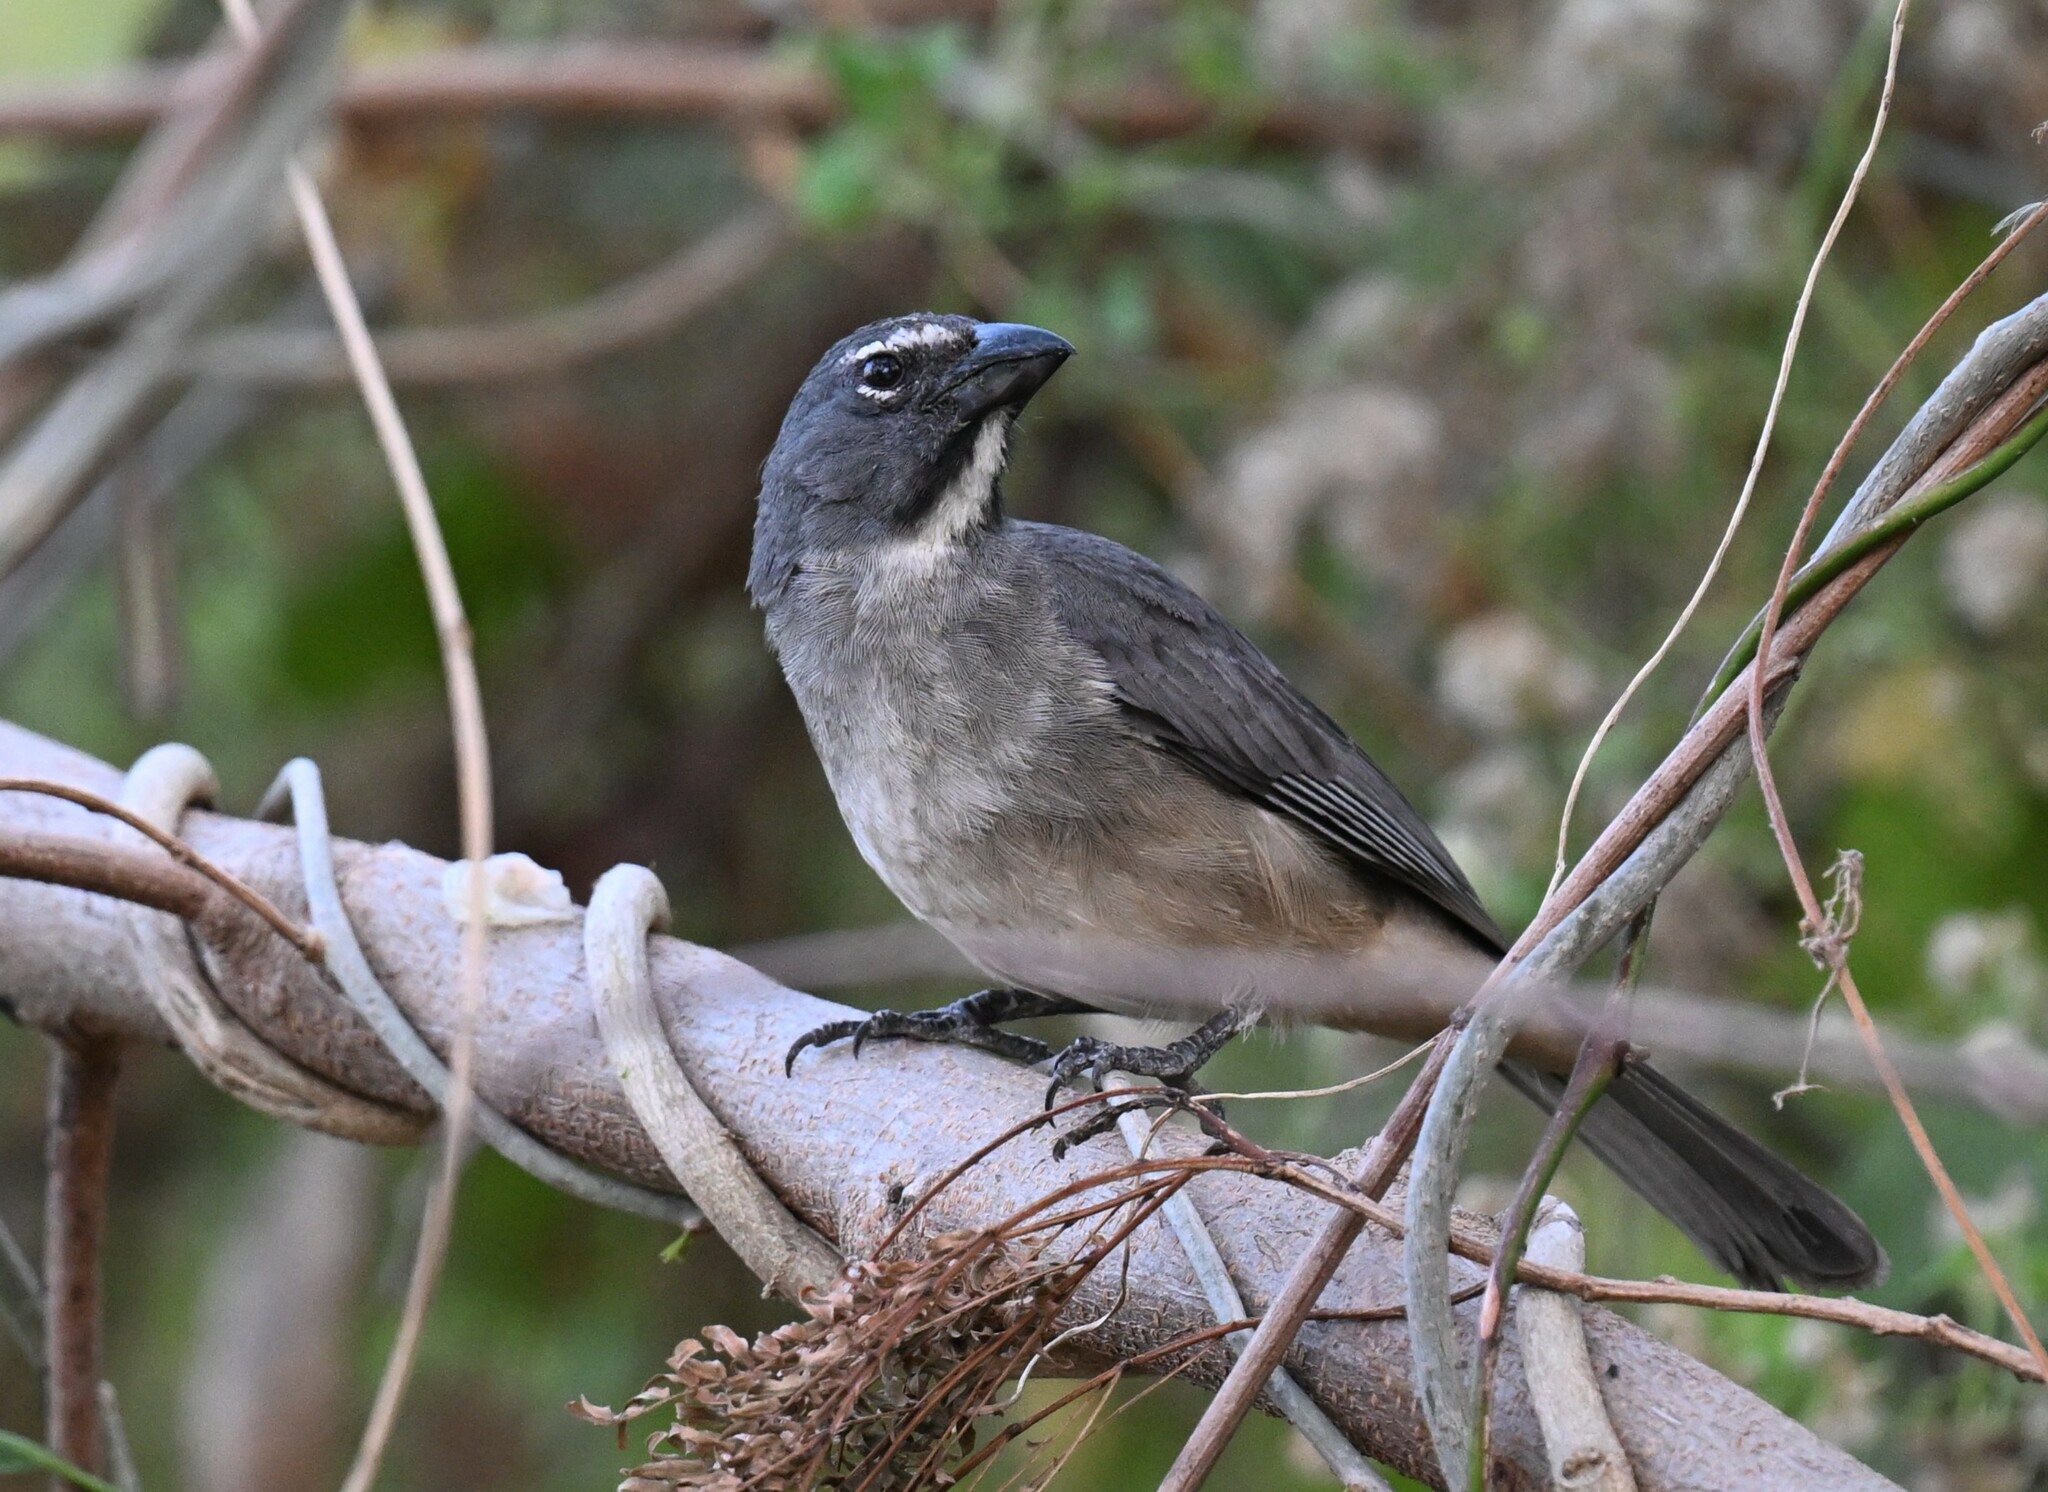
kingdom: Animalia
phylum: Chordata
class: Aves
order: Passeriformes
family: Thraupidae
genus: Saltator
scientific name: Saltator olivascens
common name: Caribbean grey saltator
